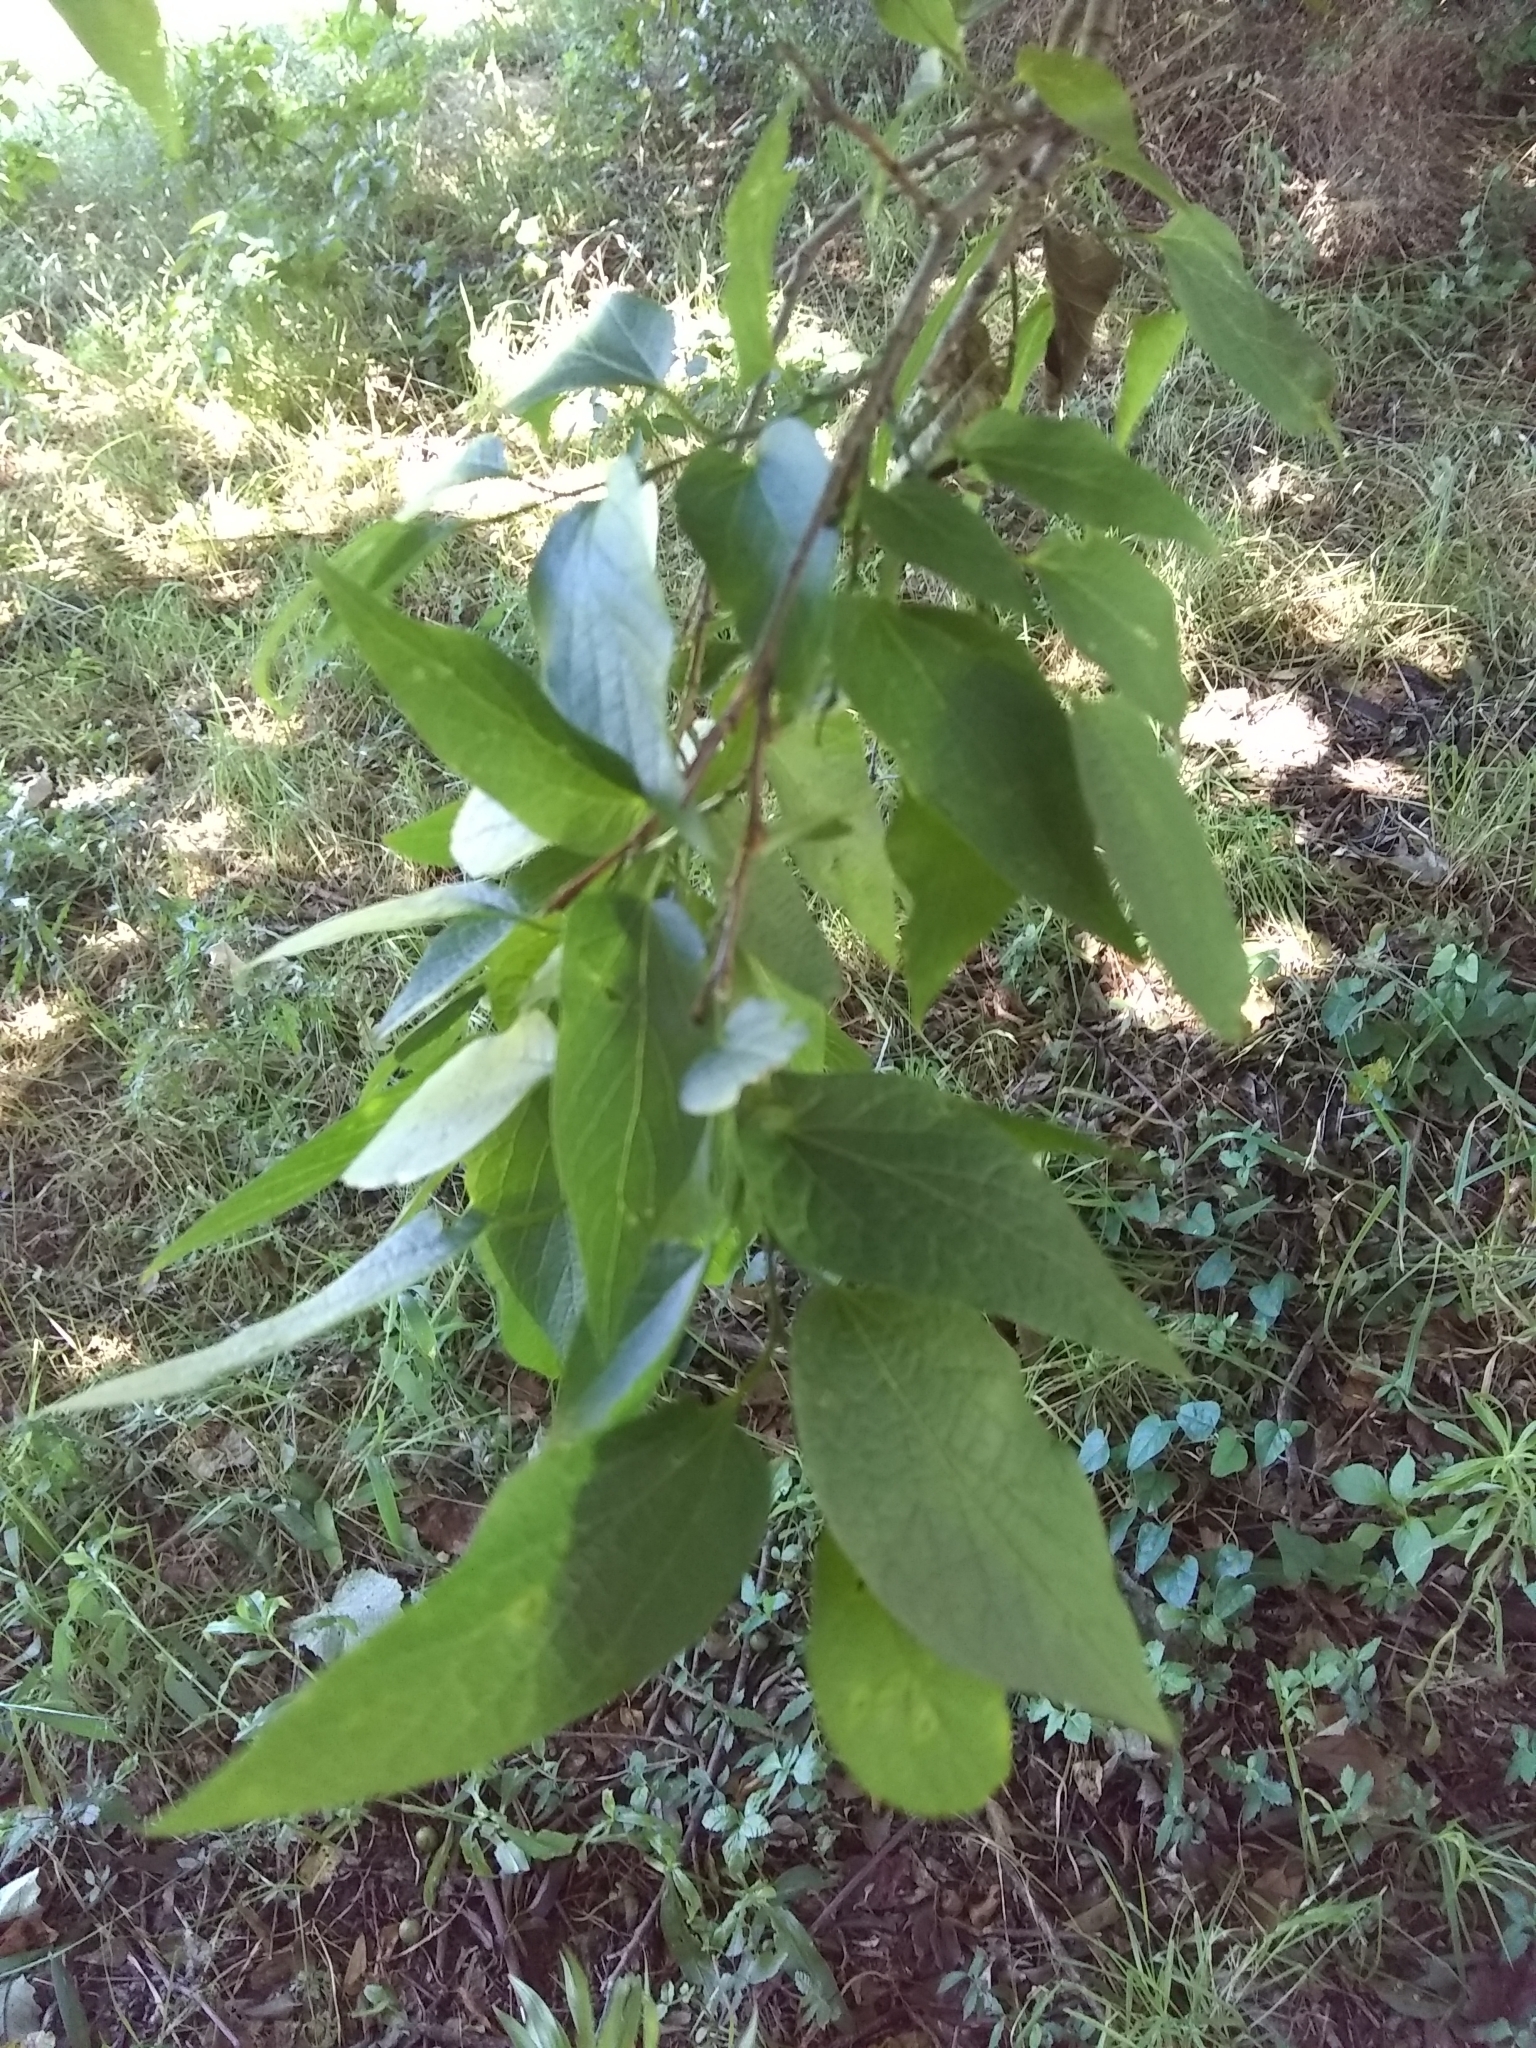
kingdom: Plantae
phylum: Tracheophyta
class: Magnoliopsida
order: Rosales
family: Cannabaceae
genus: Celtis
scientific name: Celtis laevigata
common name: Sugarberry
